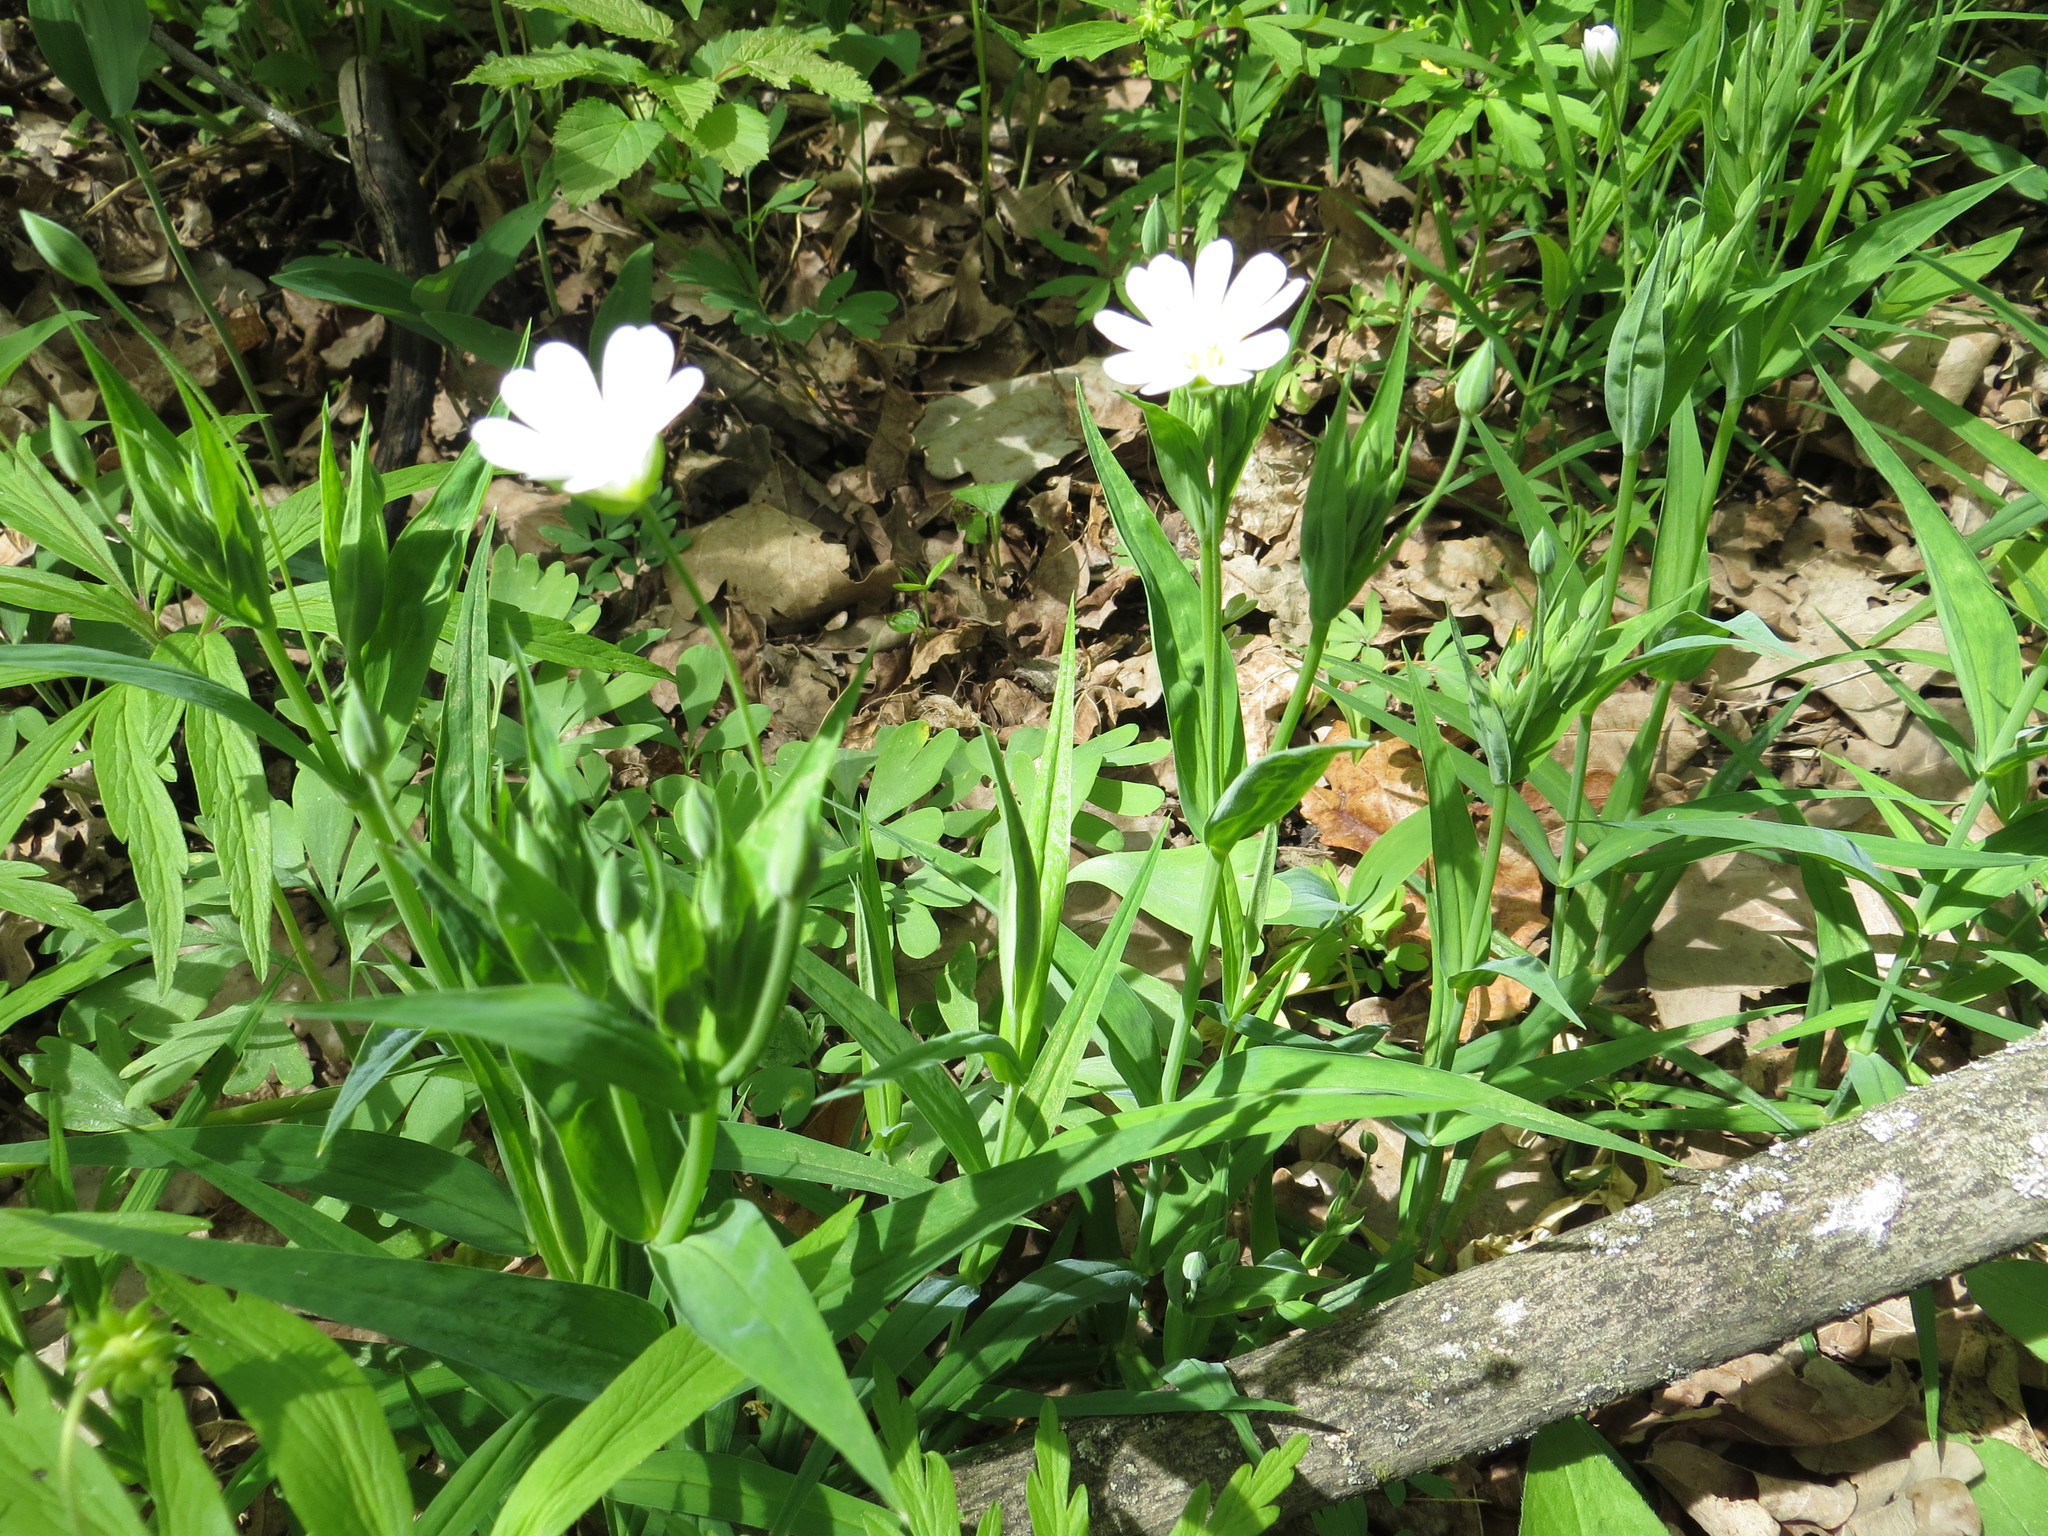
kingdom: Plantae
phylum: Tracheophyta
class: Magnoliopsida
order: Caryophyllales
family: Caryophyllaceae
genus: Rabelera
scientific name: Rabelera holostea
